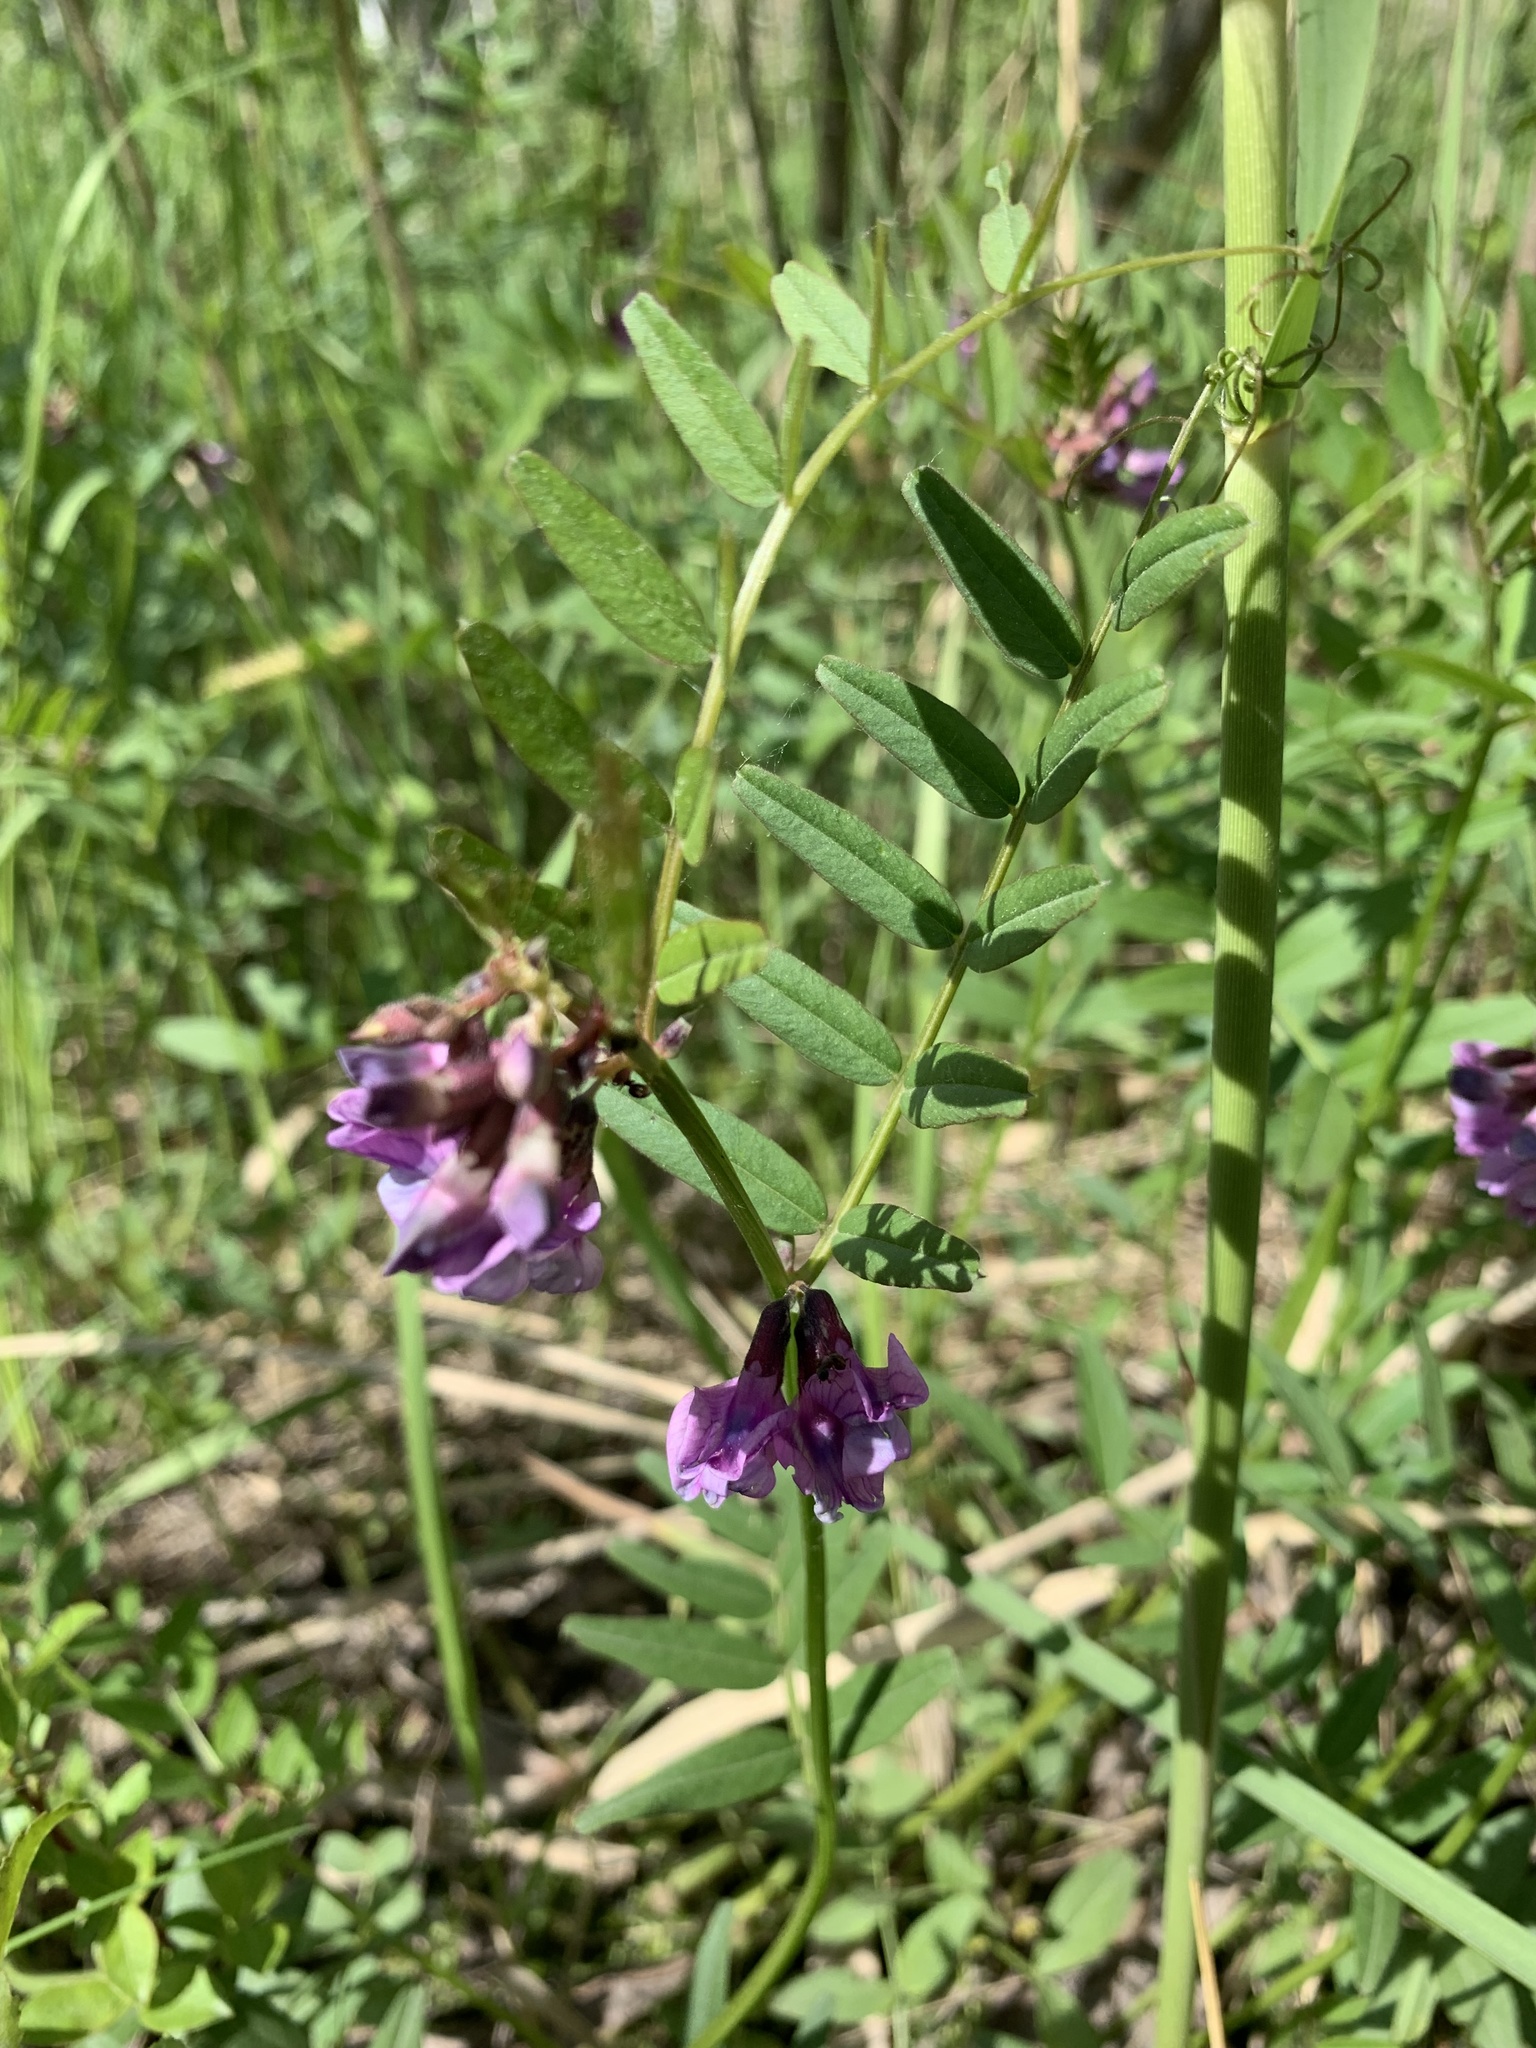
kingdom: Plantae
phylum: Tracheophyta
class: Magnoliopsida
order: Fabales
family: Fabaceae
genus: Vicia
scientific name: Vicia sepium
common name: Bush vetch
